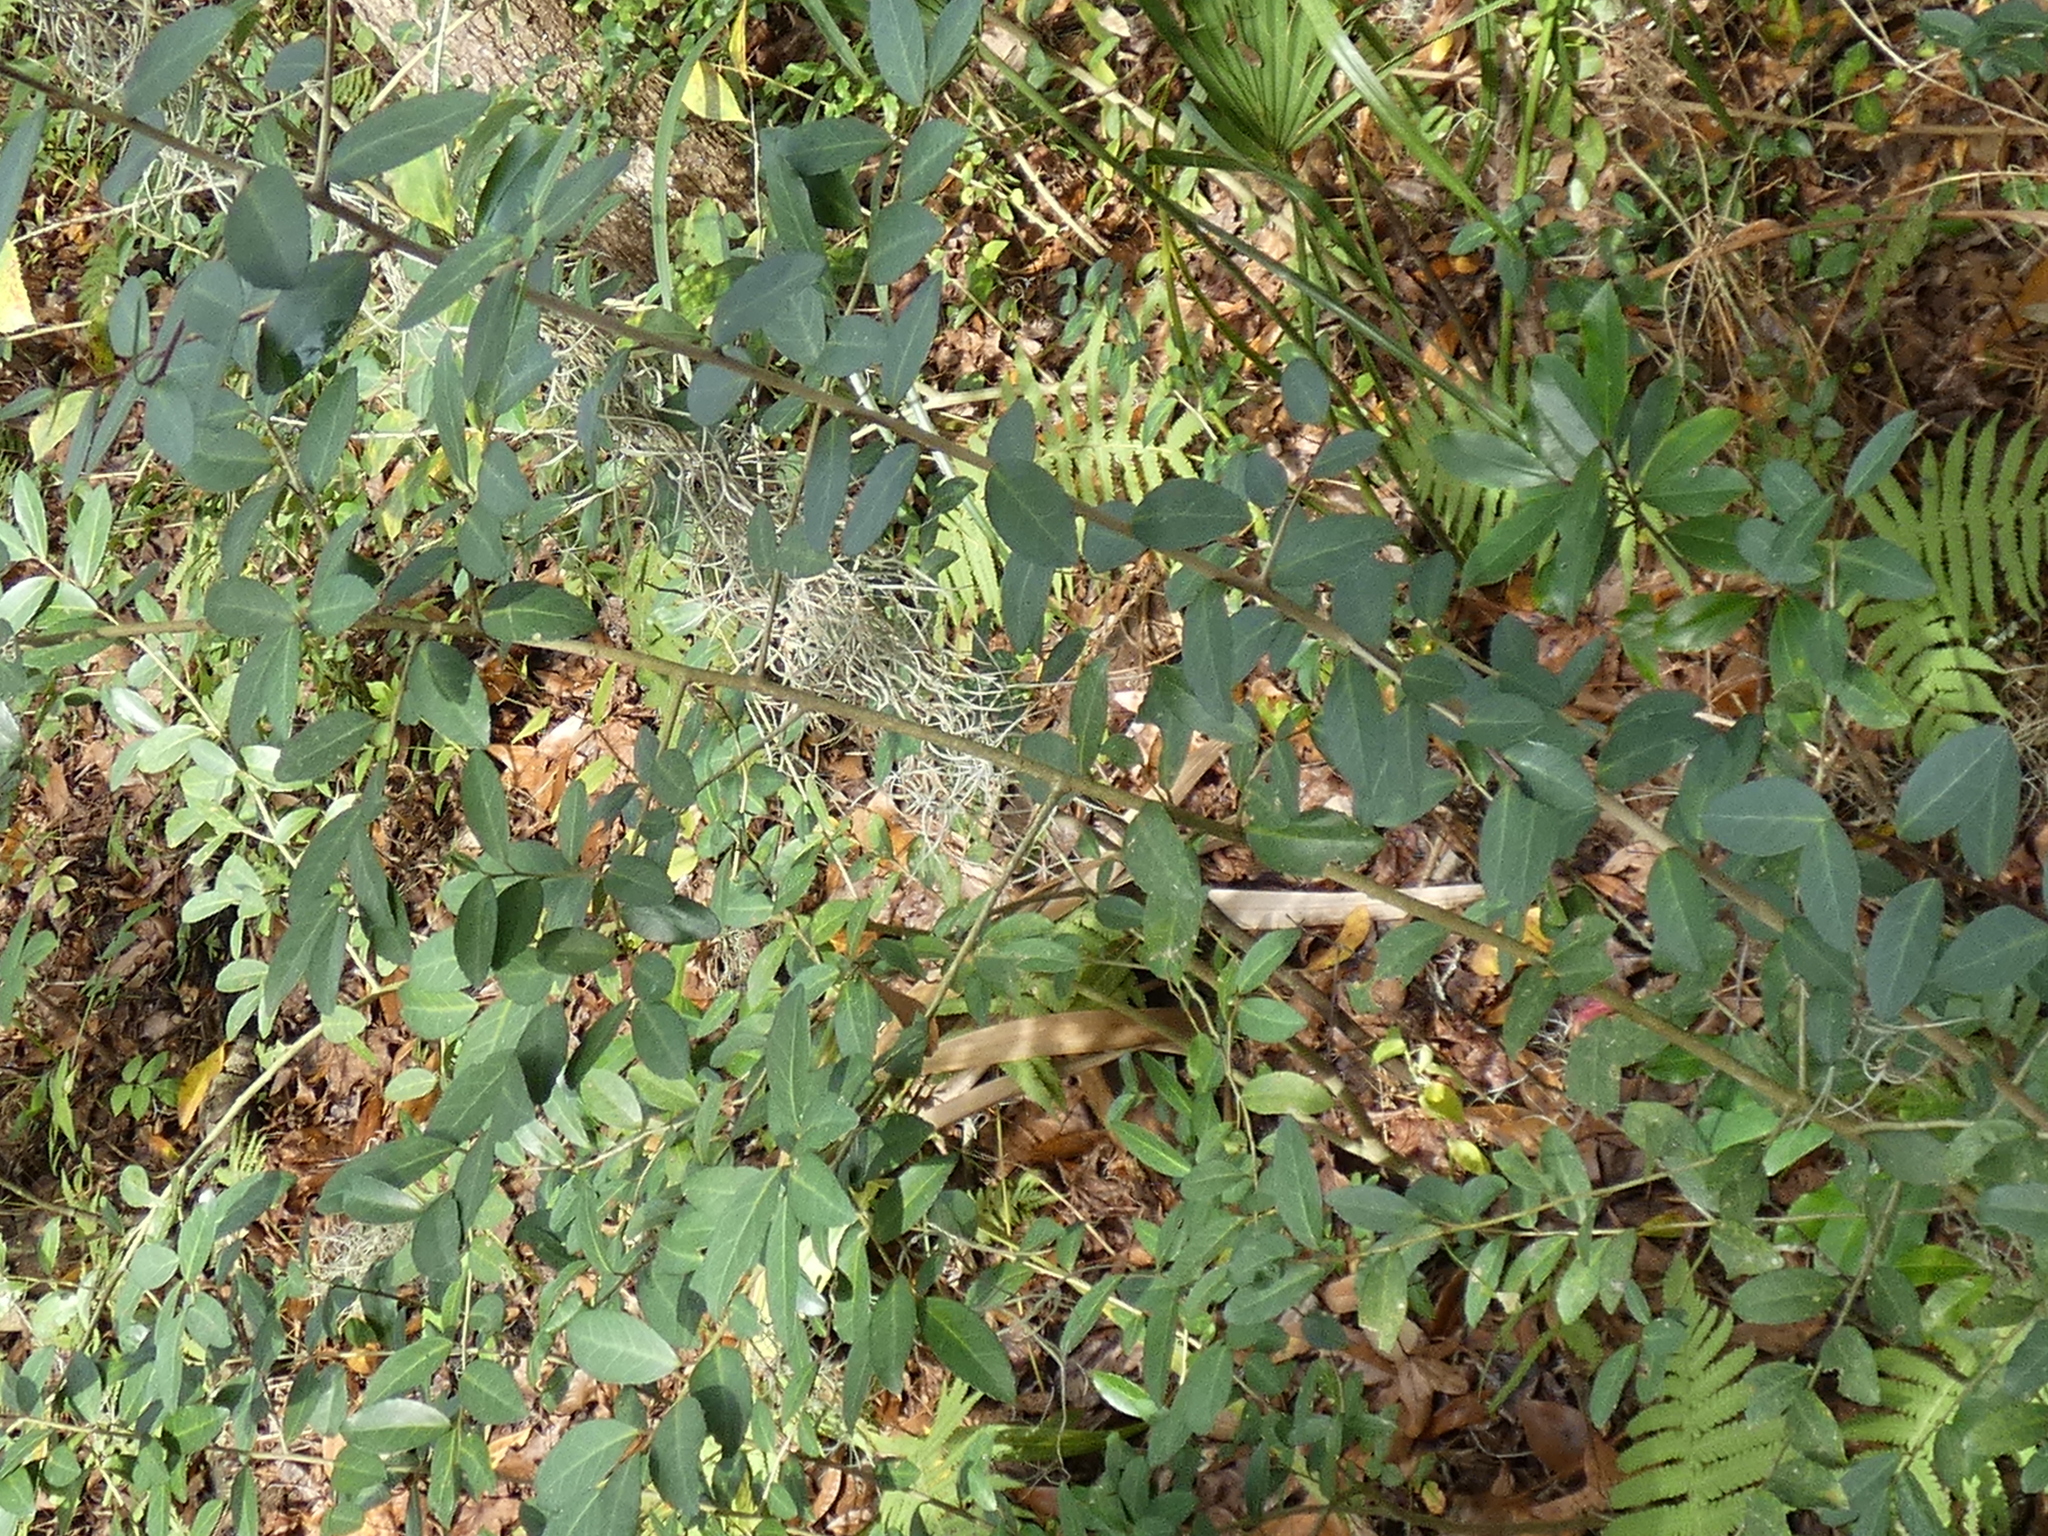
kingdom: Plantae
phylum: Tracheophyta
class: Magnoliopsida
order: Aquifoliales
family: Aquifoliaceae
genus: Ilex
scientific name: Ilex vomitoria
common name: Yaupon holly
